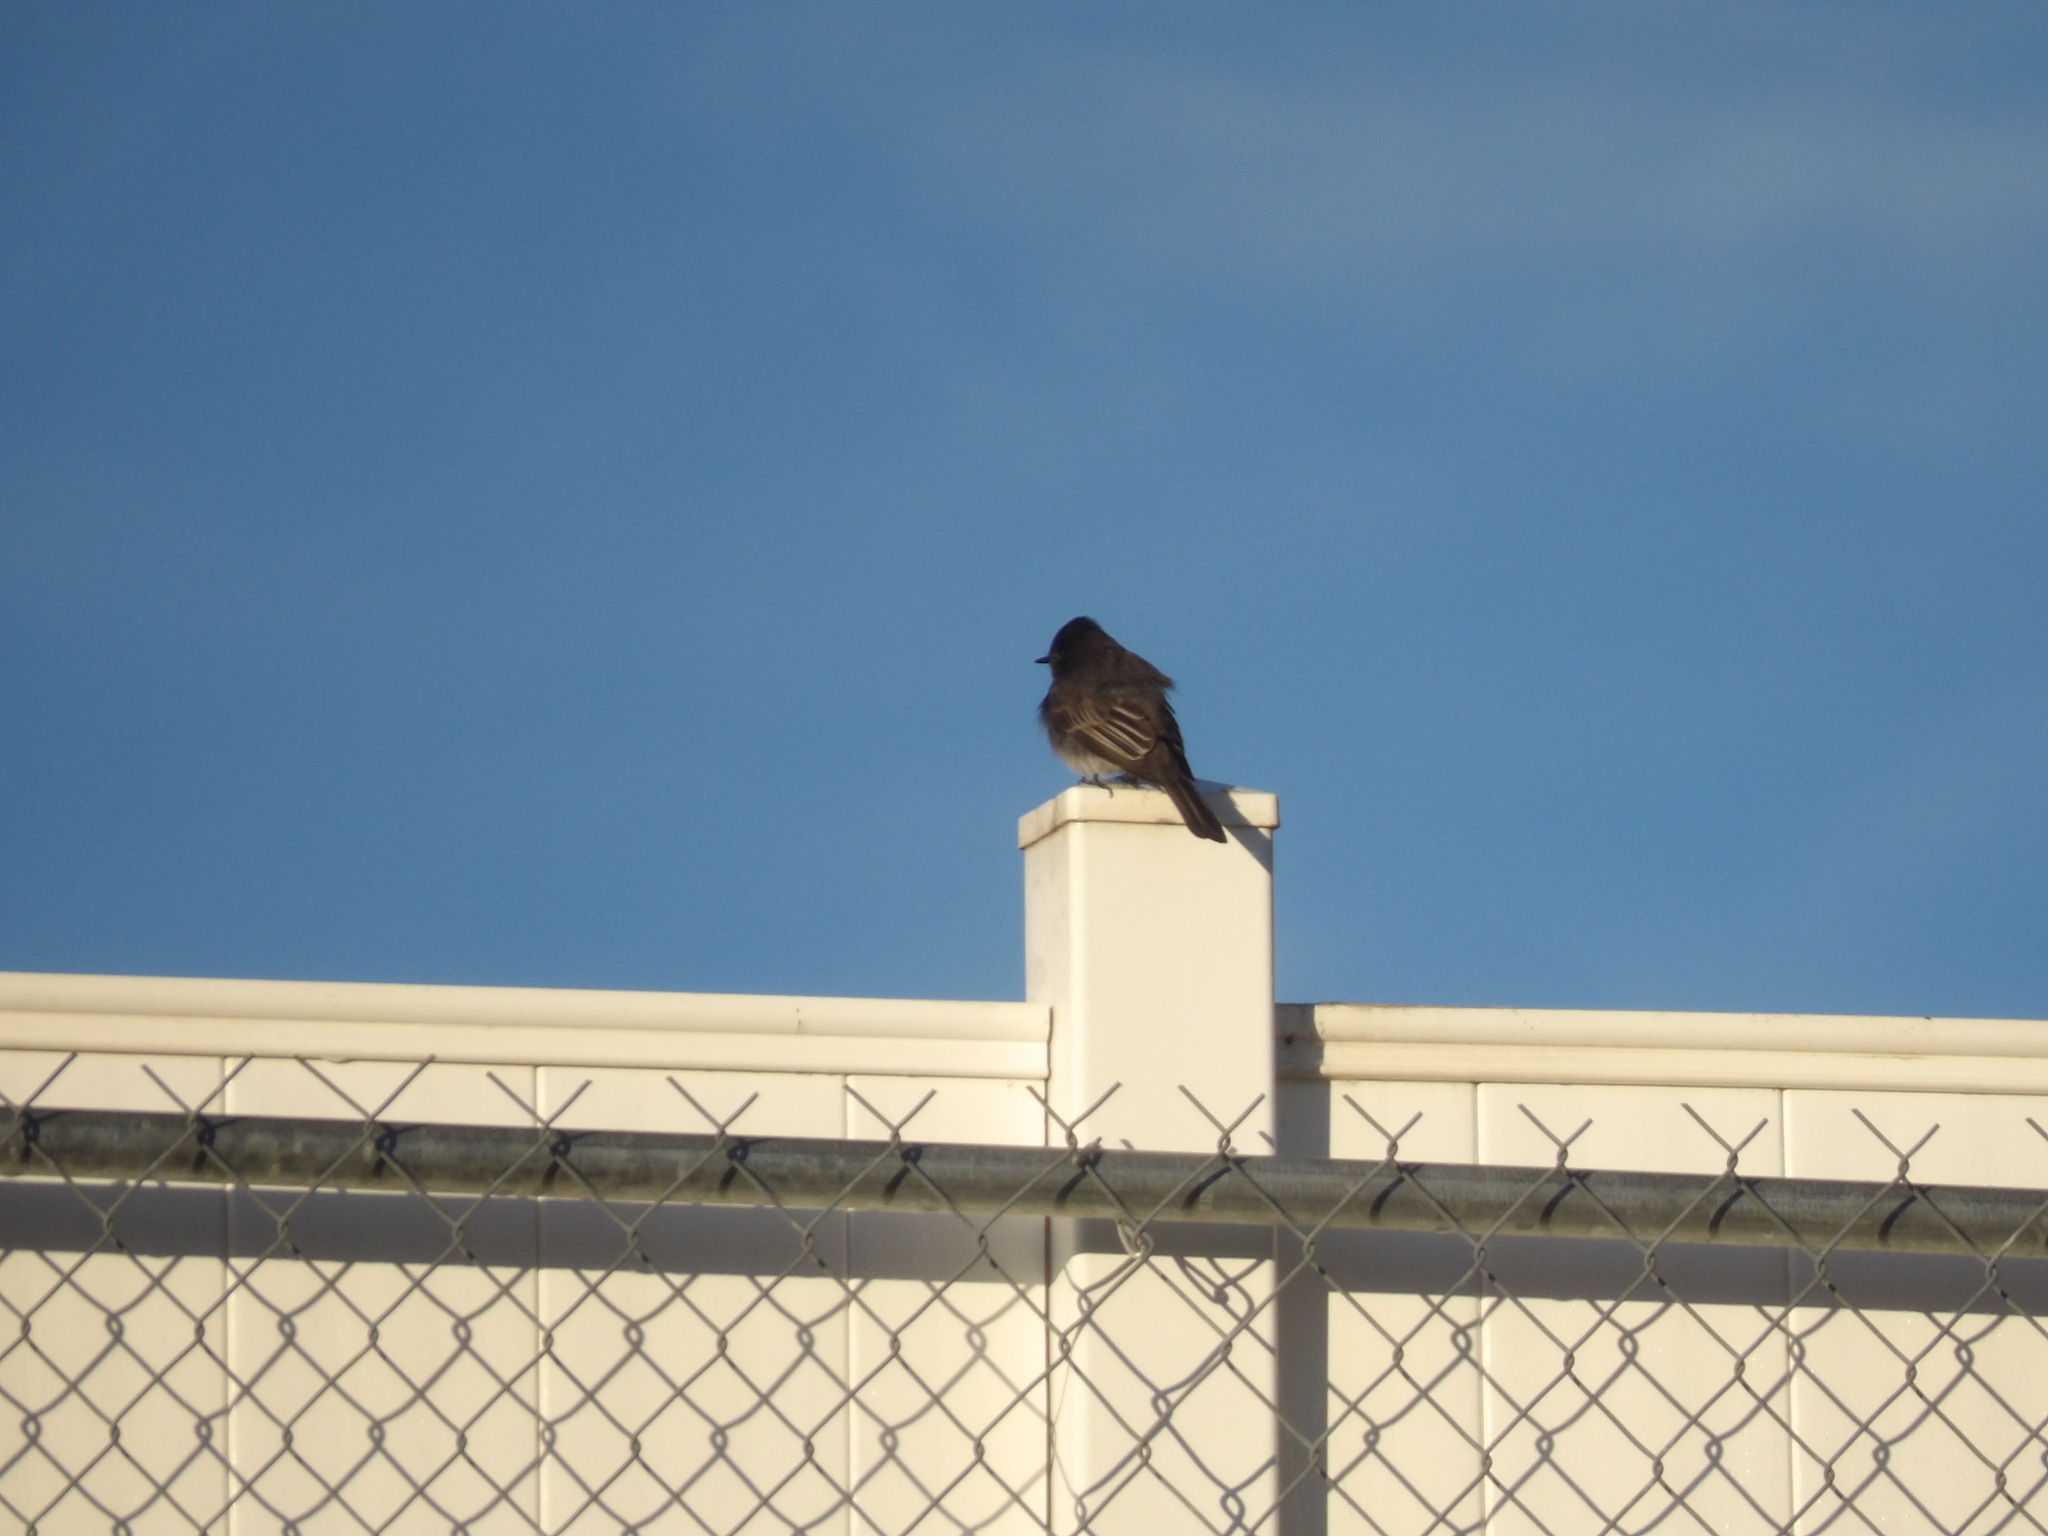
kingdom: Animalia
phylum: Chordata
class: Aves
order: Passeriformes
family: Tyrannidae
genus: Sayornis
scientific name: Sayornis nigricans
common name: Black phoebe
